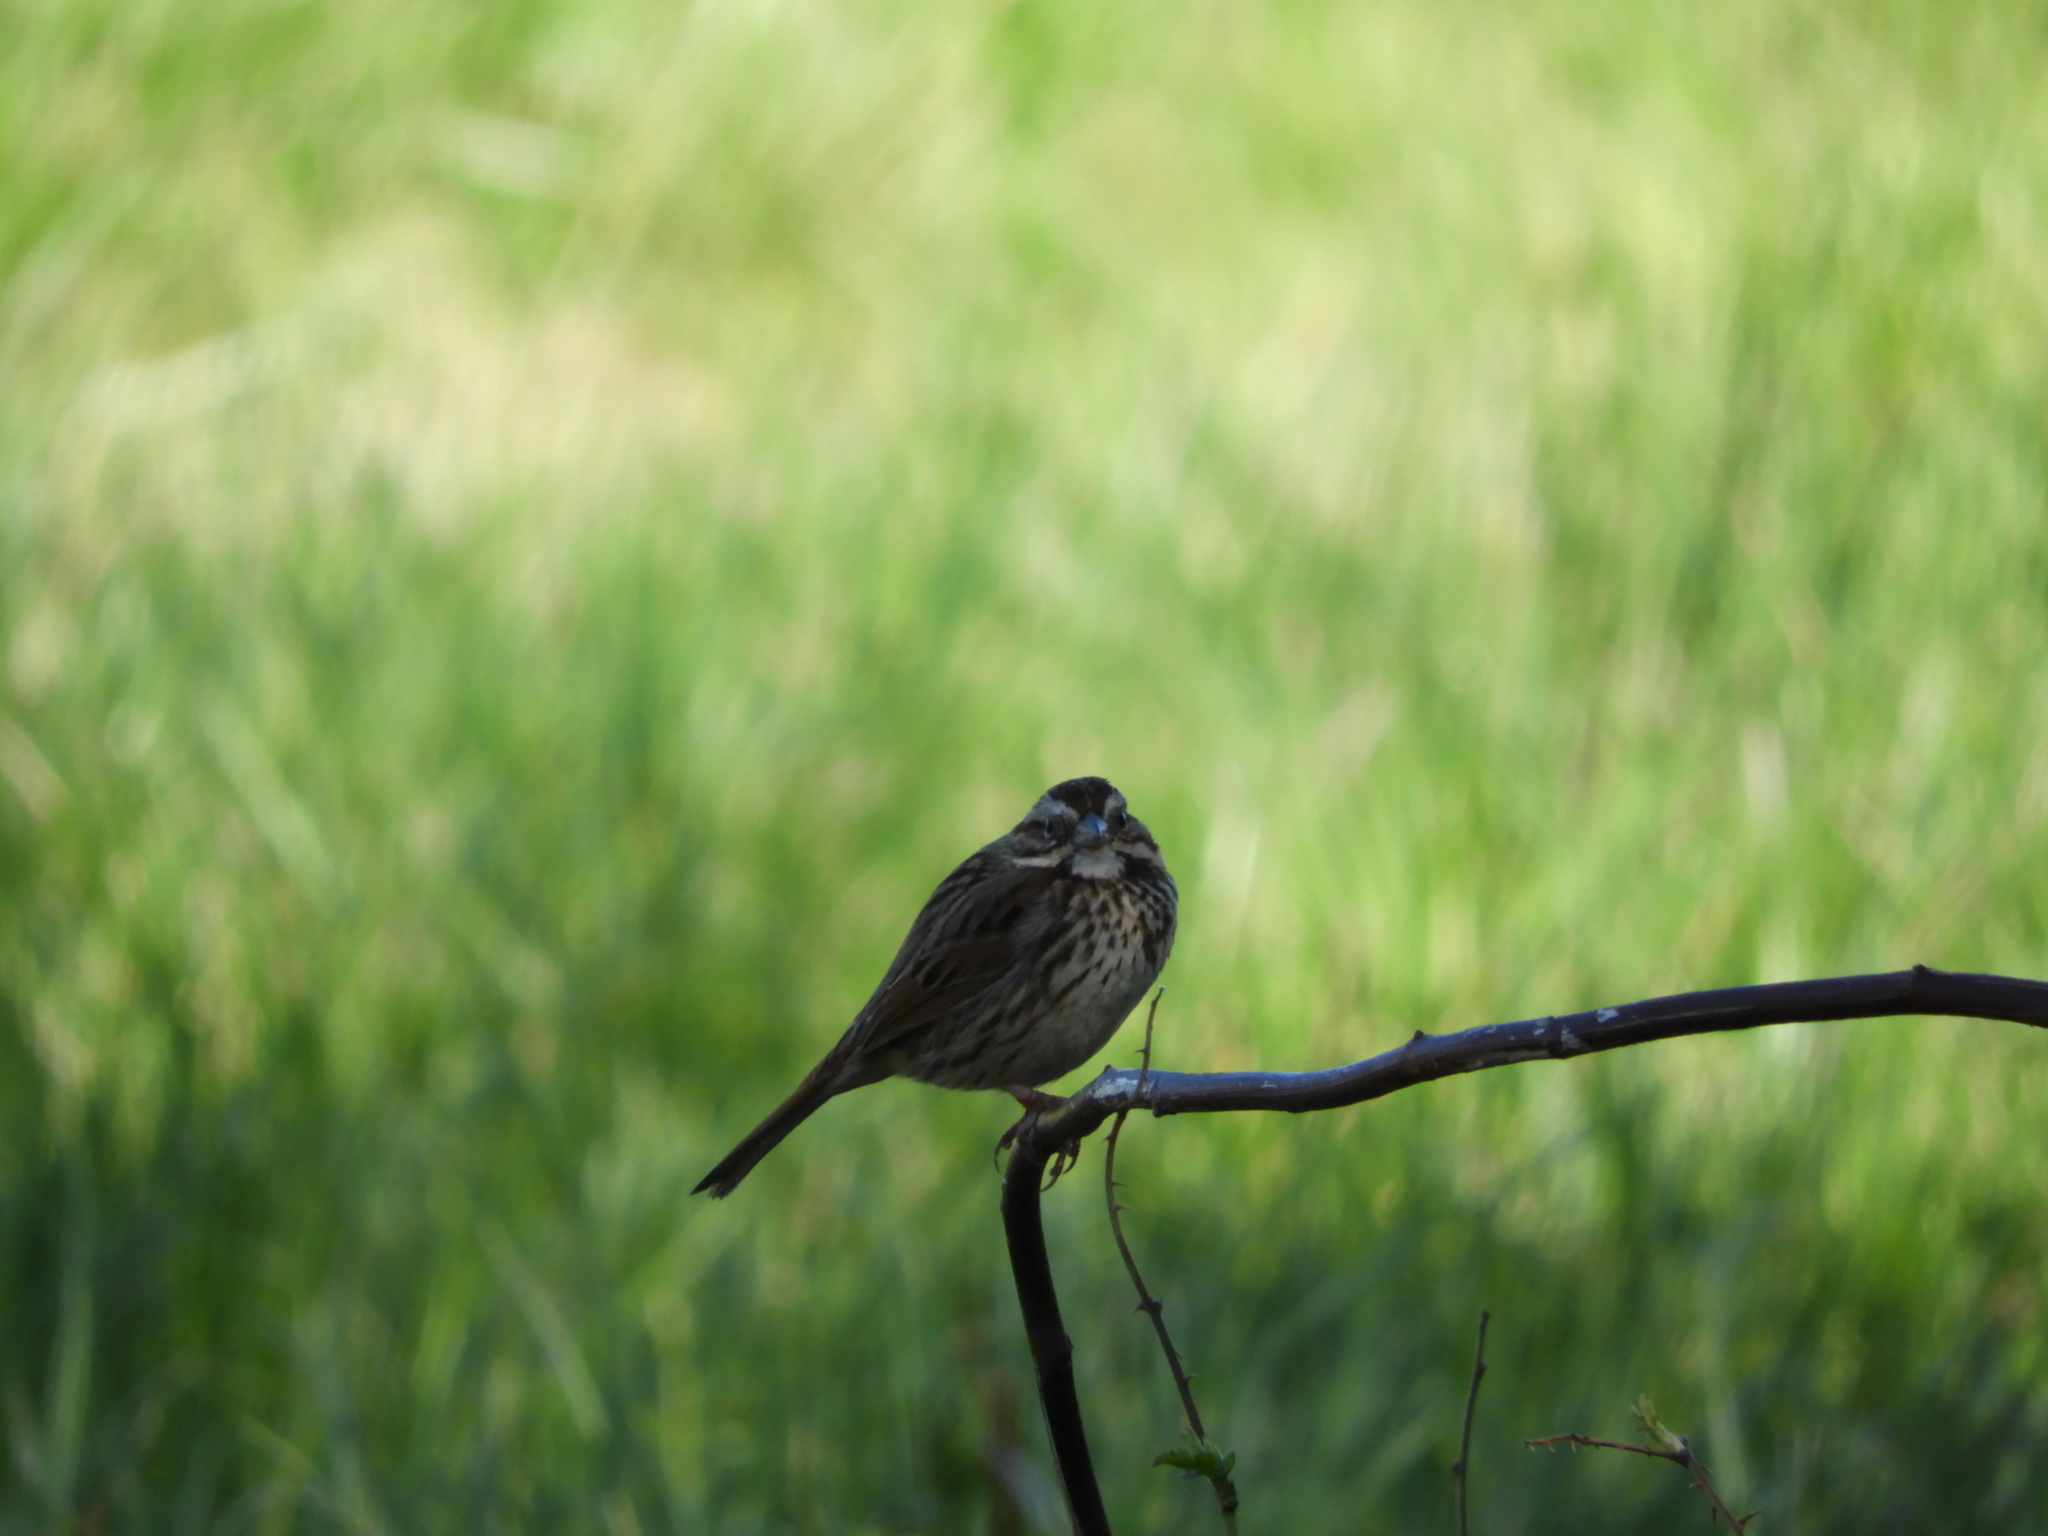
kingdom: Animalia
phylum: Chordata
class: Aves
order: Passeriformes
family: Passerellidae
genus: Zonotrichia
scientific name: Zonotrichia albicollis
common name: White-throated sparrow
